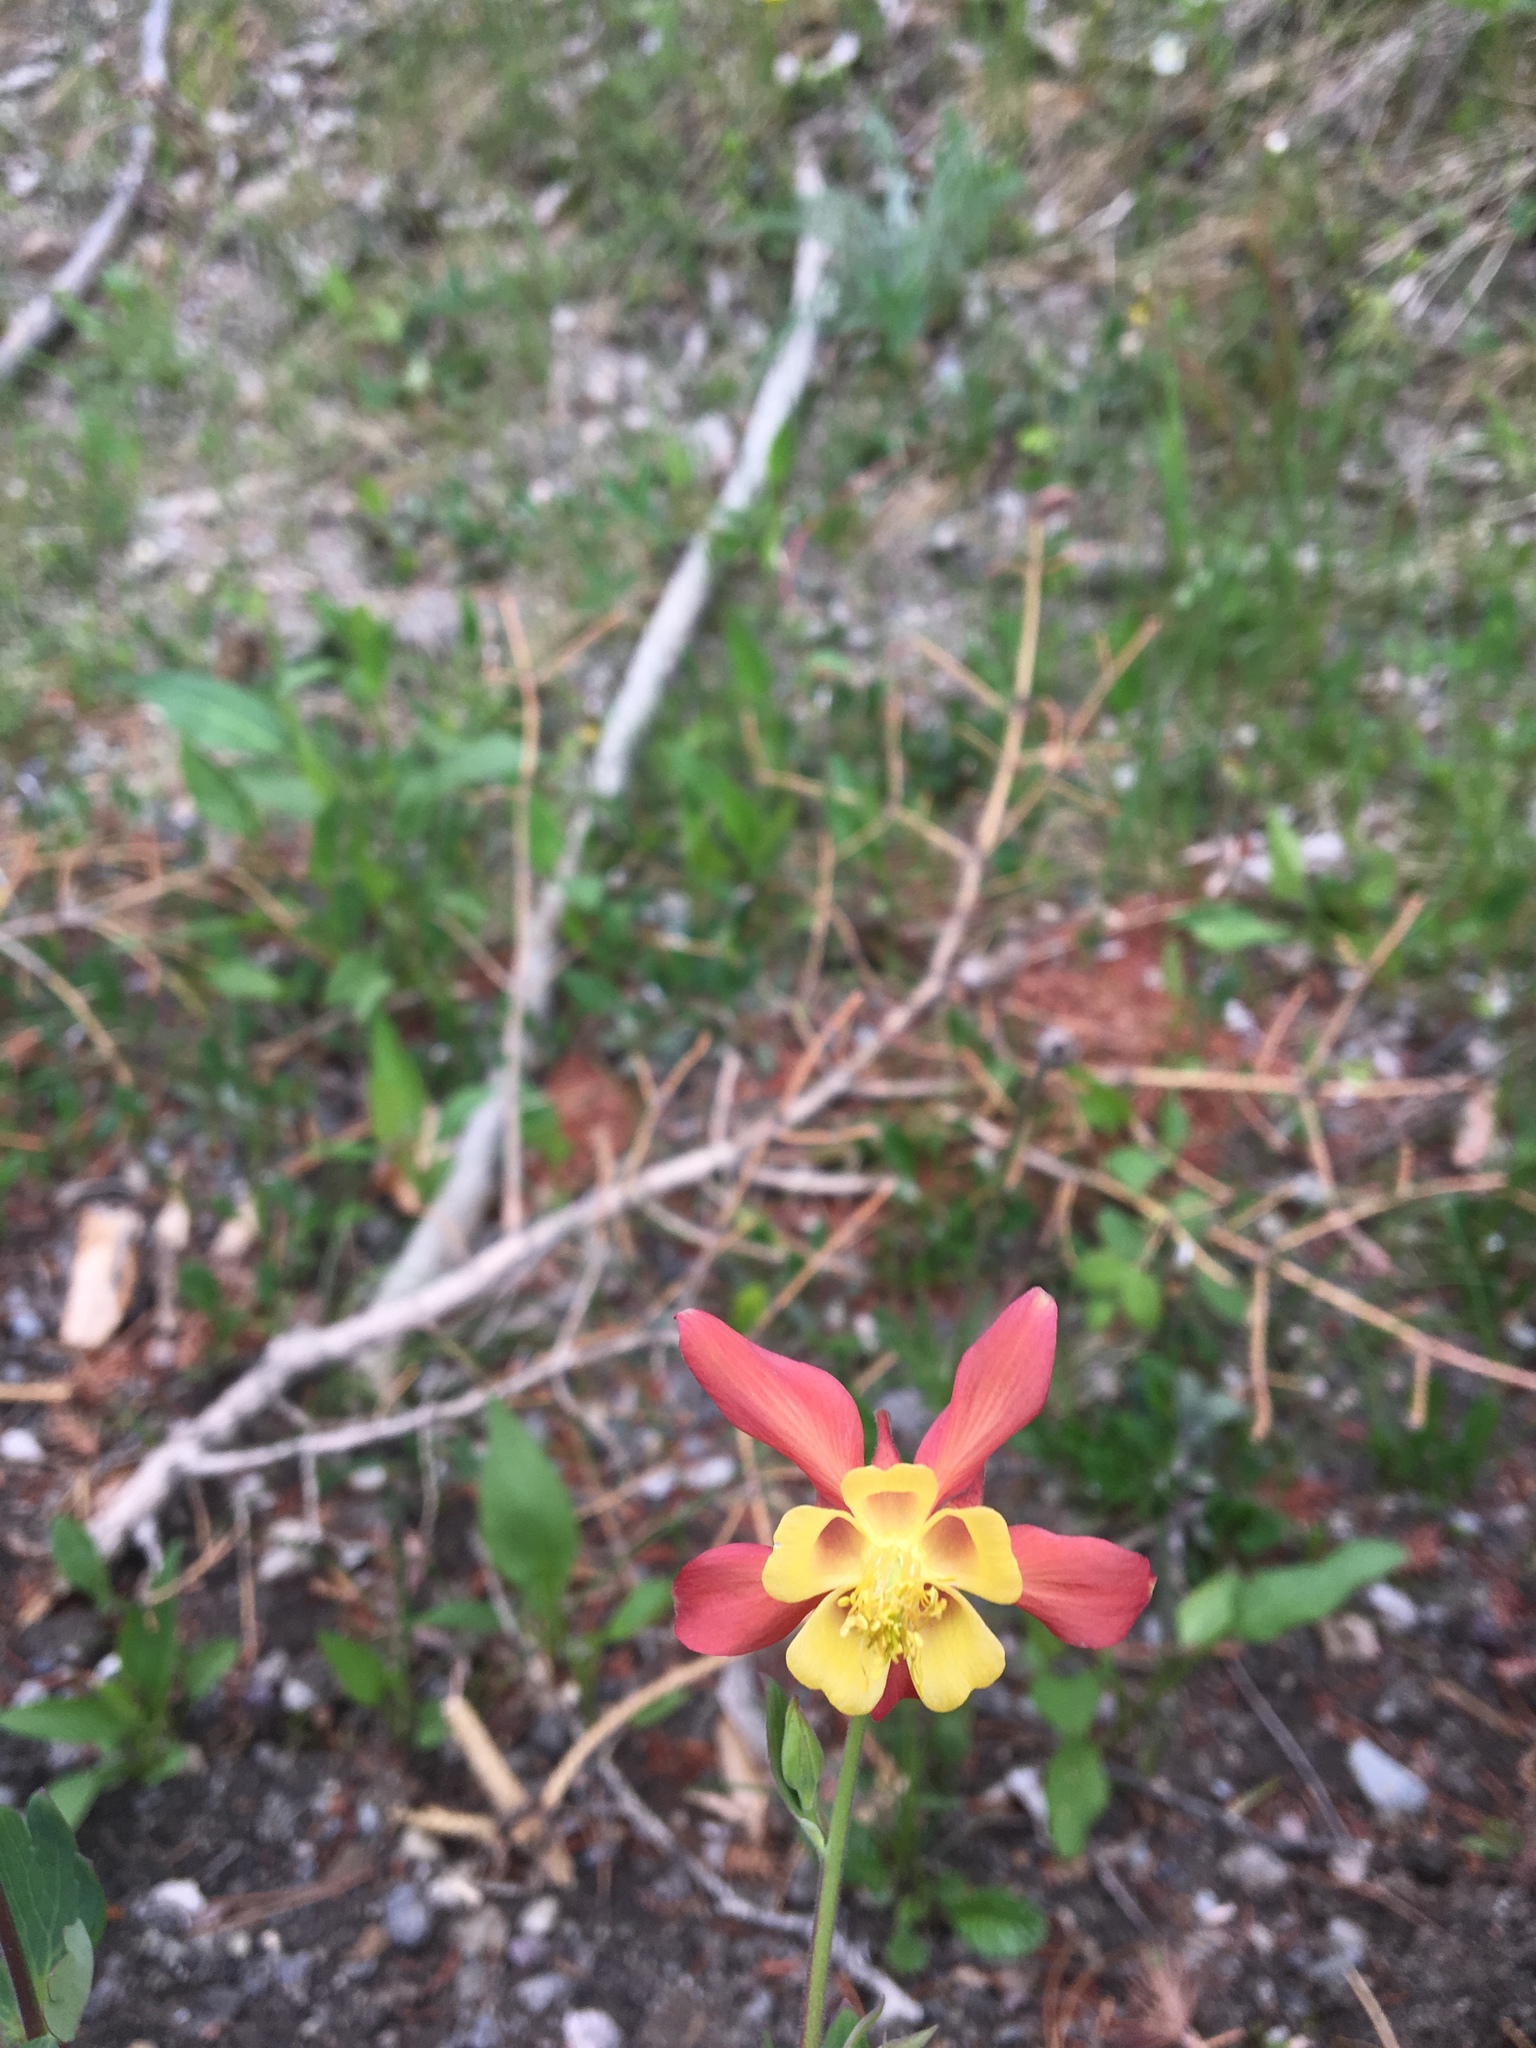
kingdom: Plantae
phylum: Tracheophyta
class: Magnoliopsida
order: Ranunculales
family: Ranunculaceae
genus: Aquilegia
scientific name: Aquilegia formosa
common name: Sitka columbine
